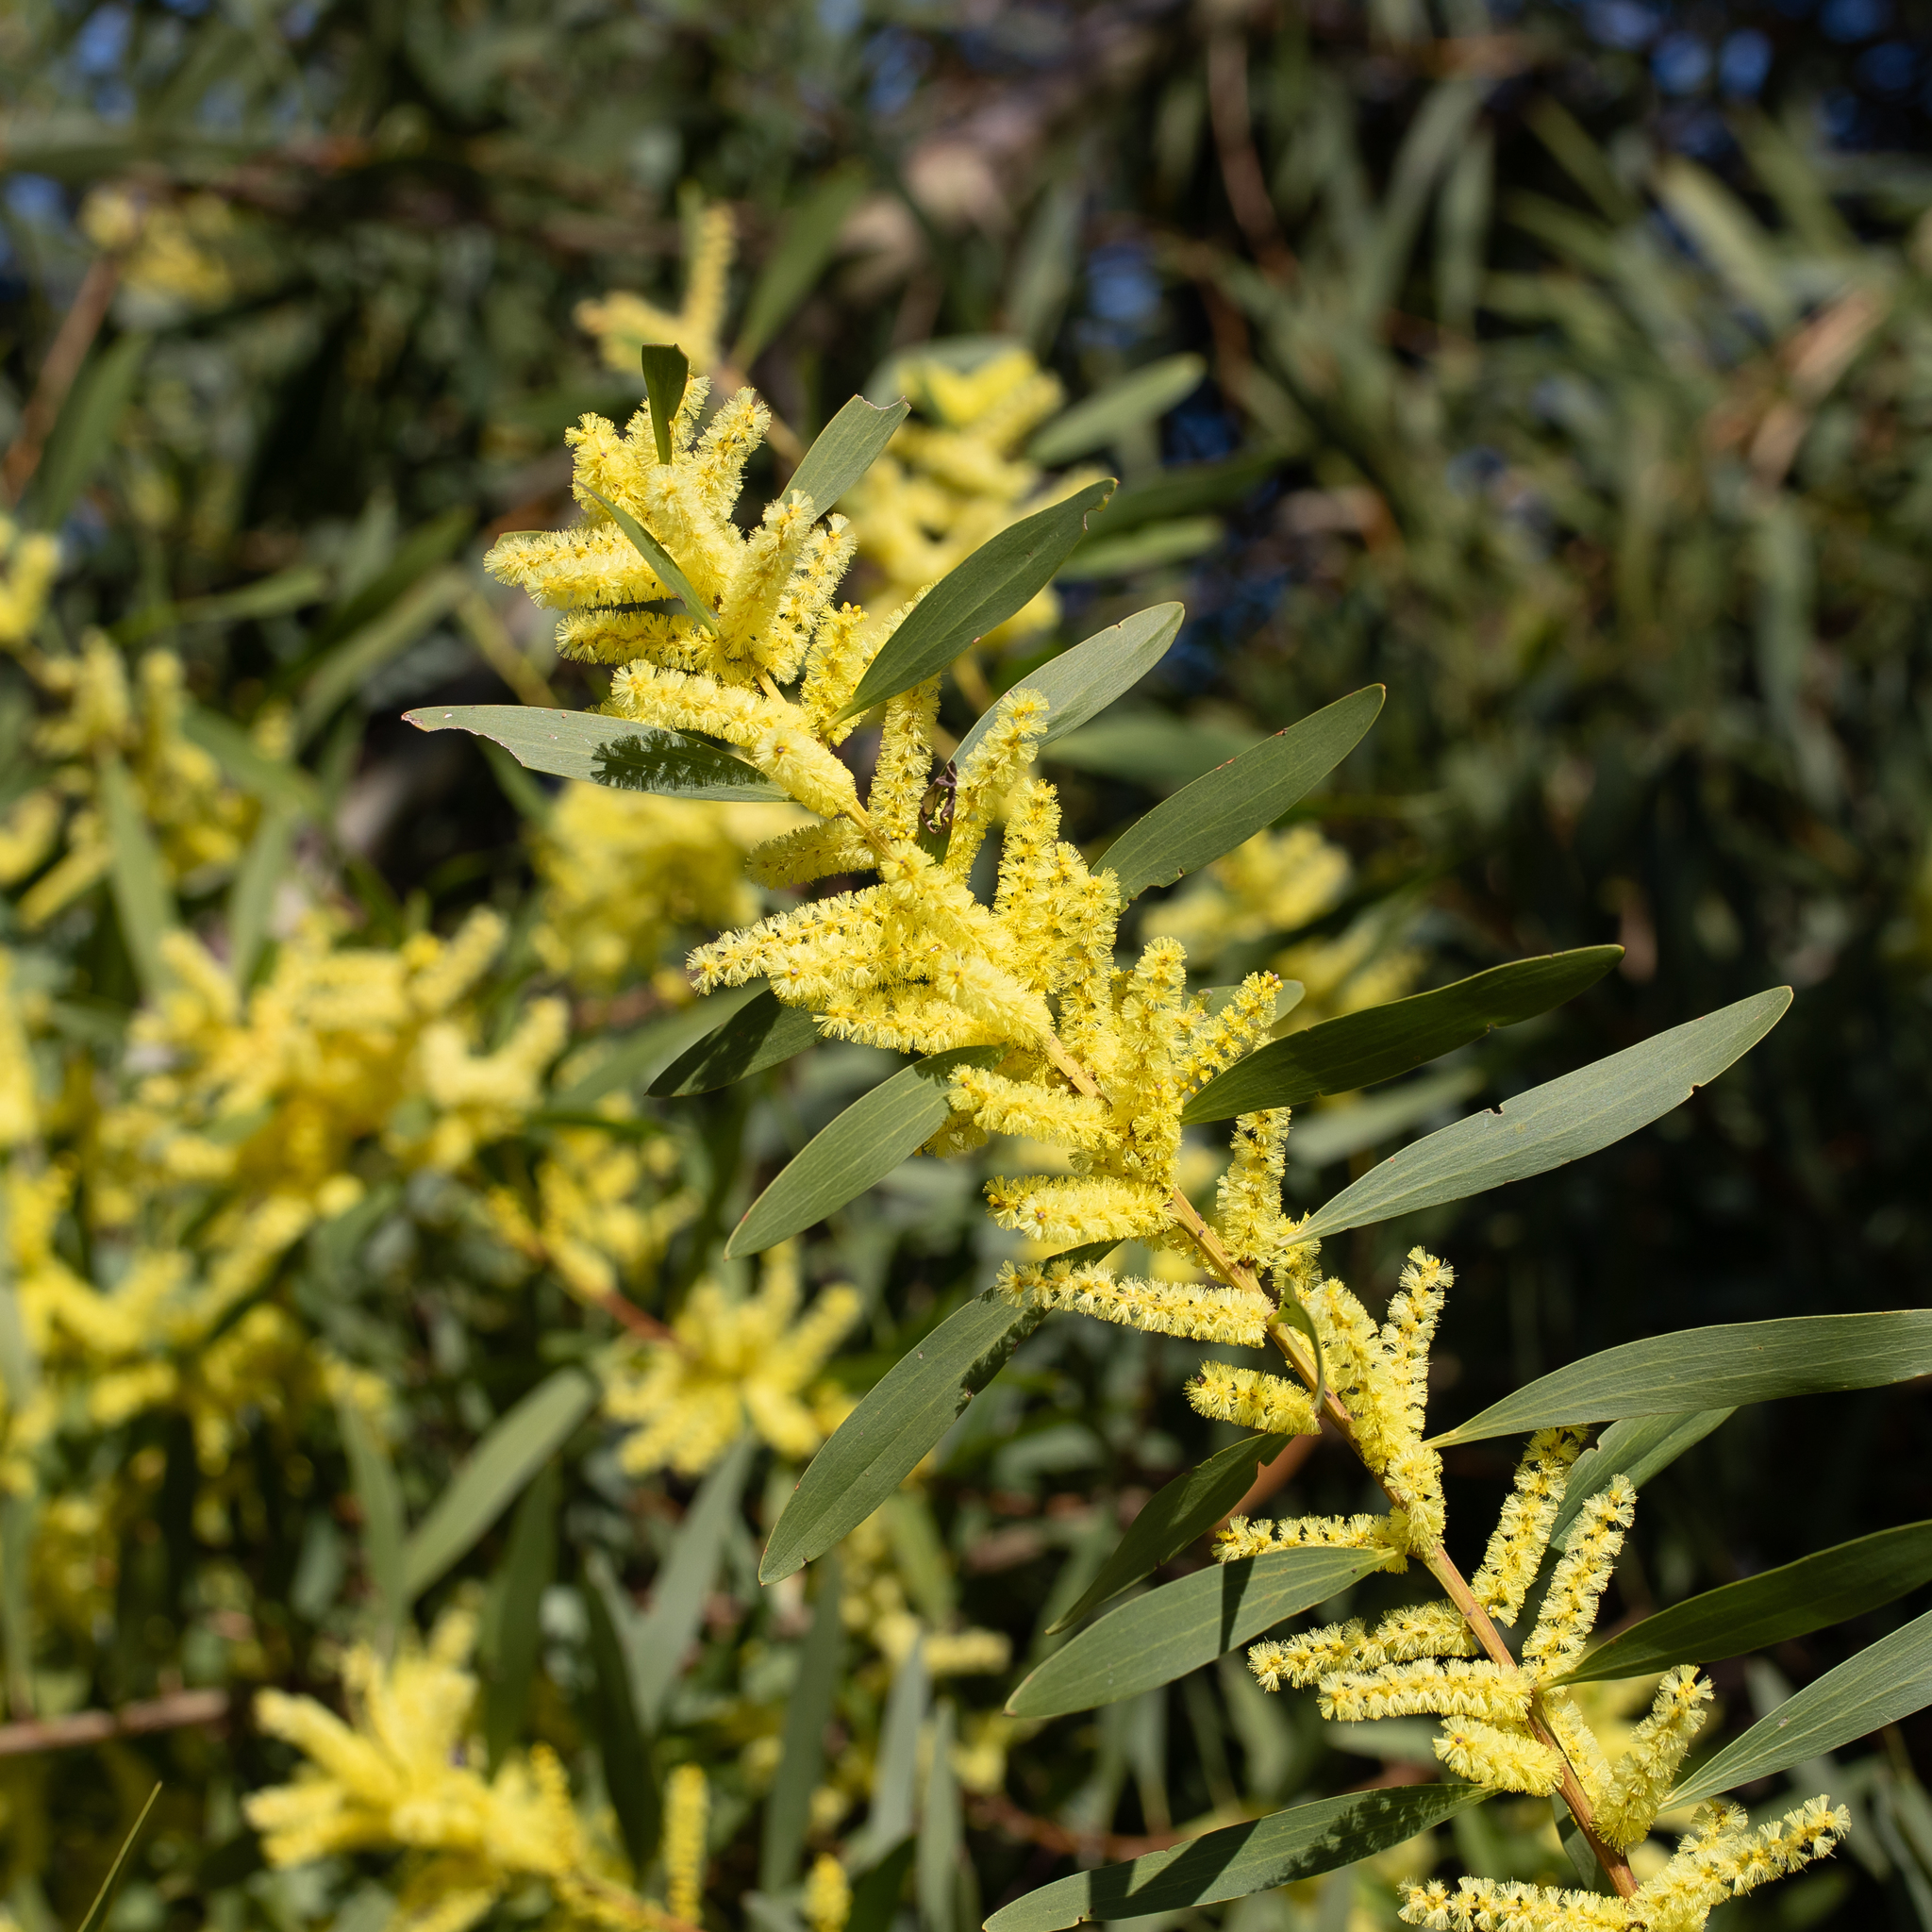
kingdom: Plantae
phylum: Tracheophyta
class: Magnoliopsida
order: Fabales
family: Fabaceae
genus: Acacia
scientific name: Acacia longifolia
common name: Sydney golden wattle
